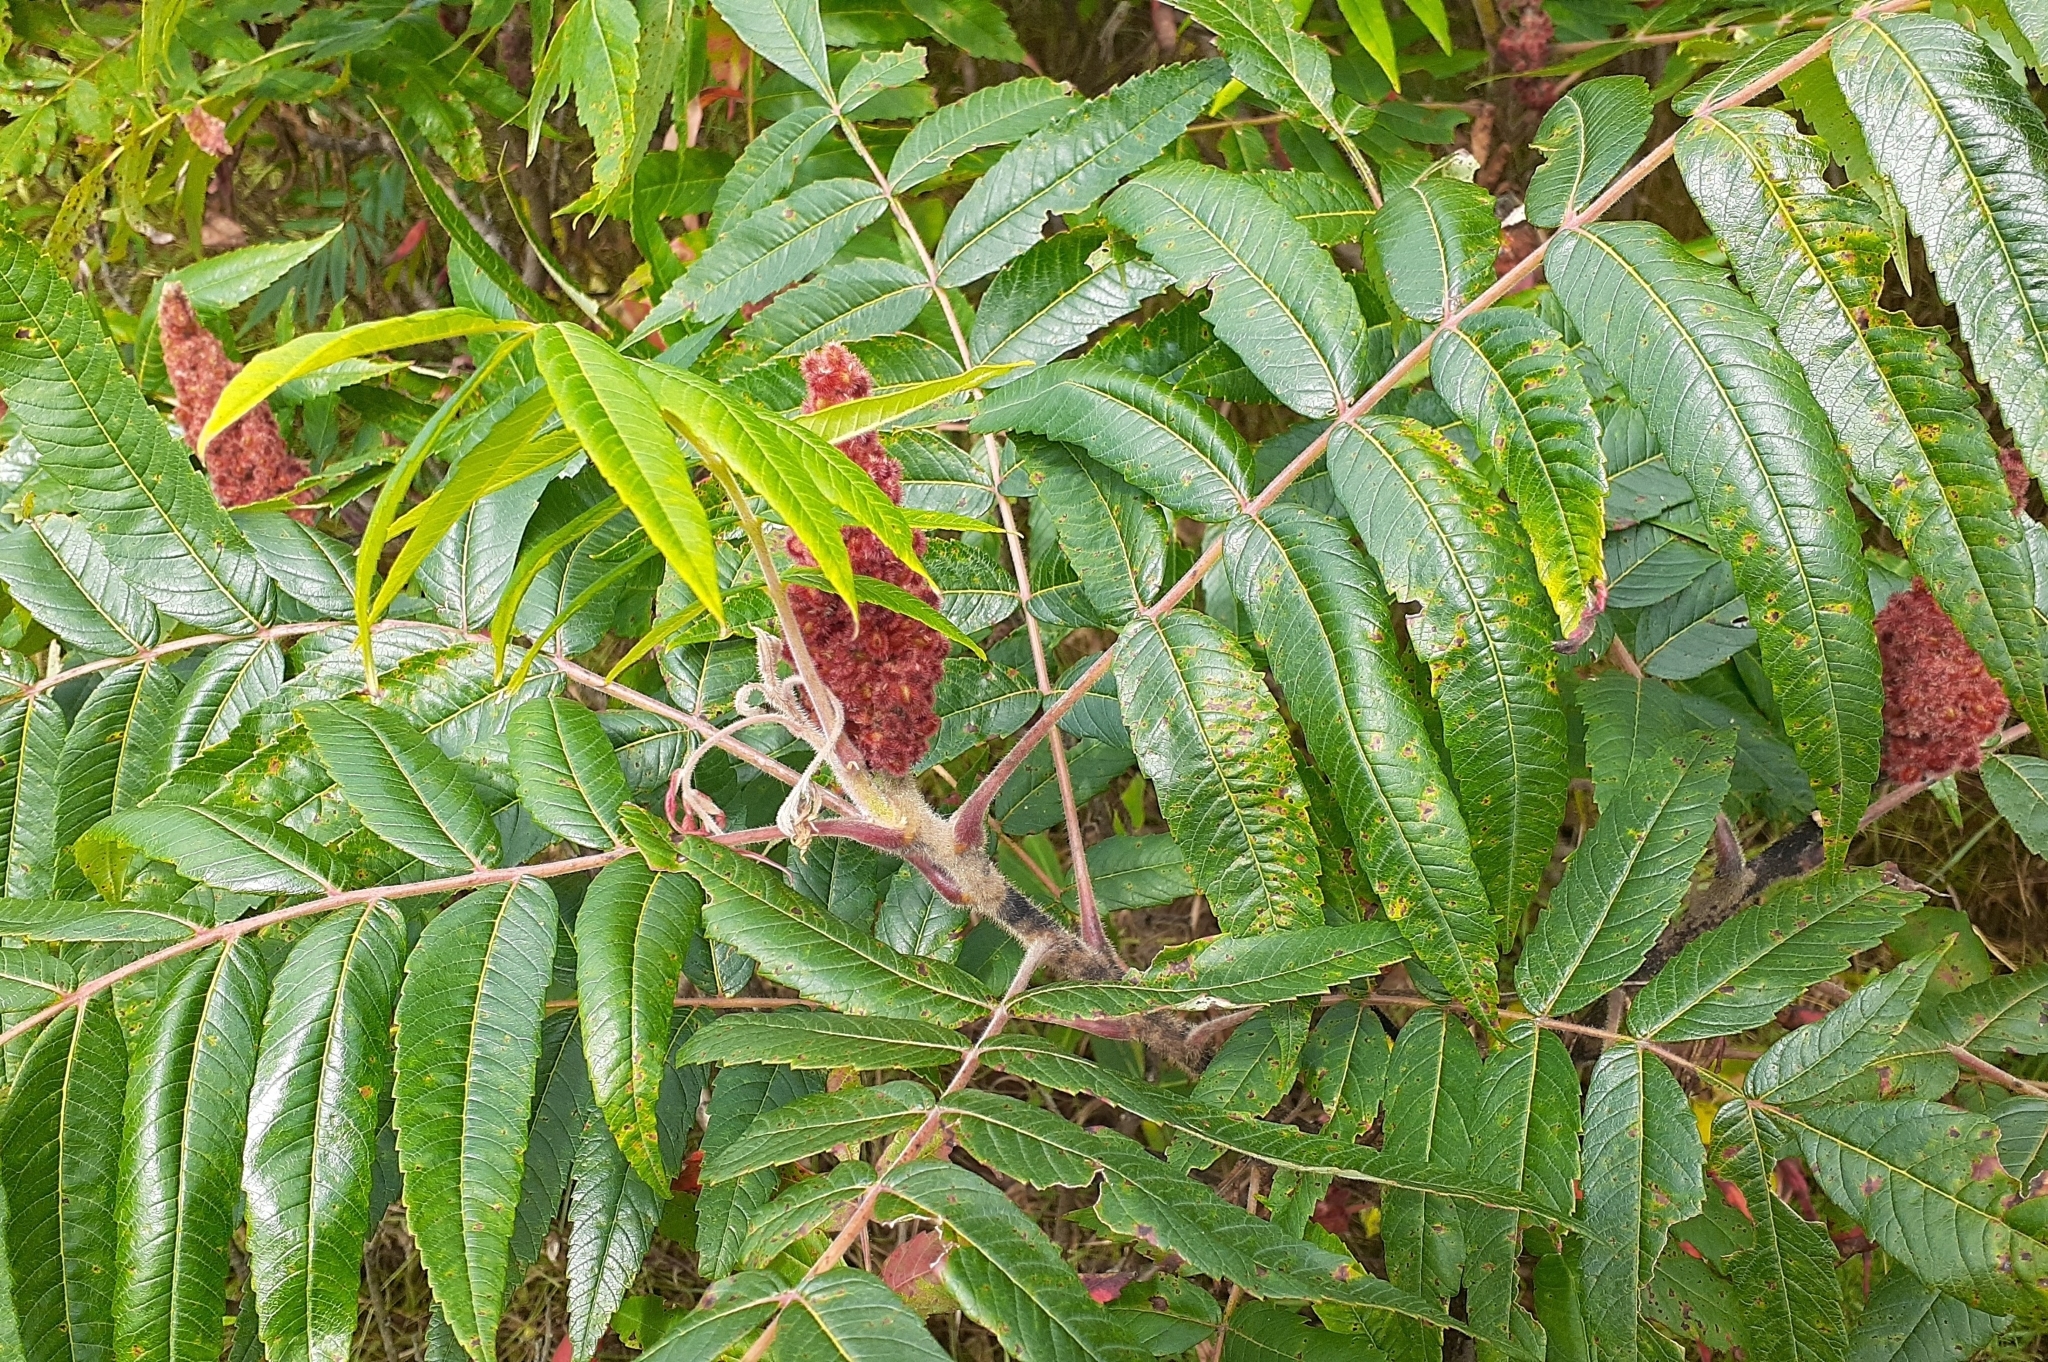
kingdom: Plantae
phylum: Tracheophyta
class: Magnoliopsida
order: Sapindales
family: Anacardiaceae
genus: Rhus
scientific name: Rhus typhina
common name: Staghorn sumac
